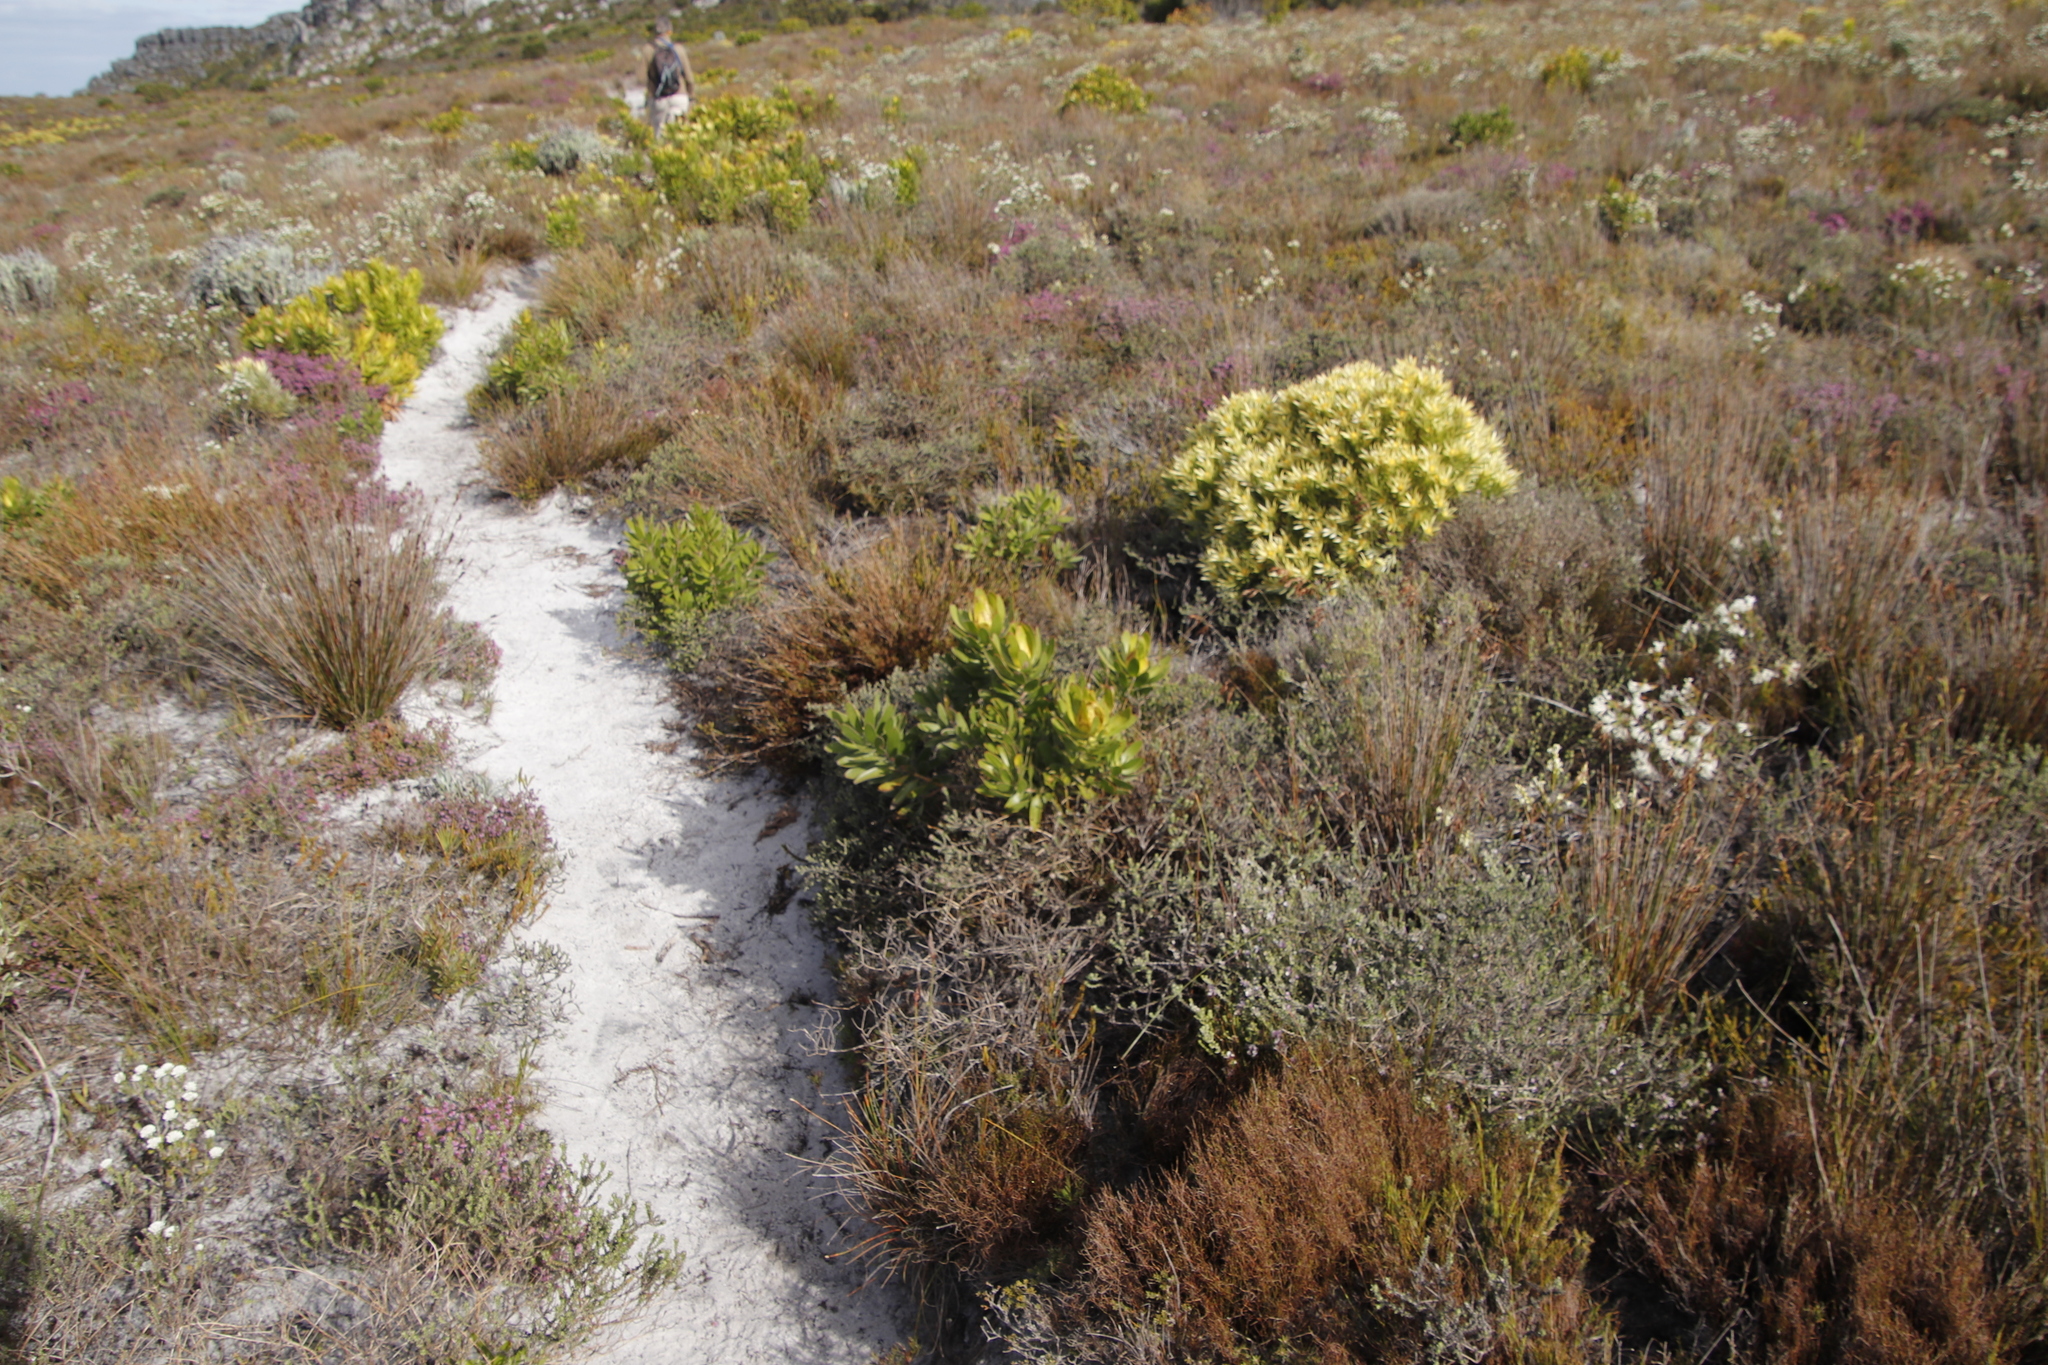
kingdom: Plantae
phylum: Tracheophyta
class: Magnoliopsida
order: Proteales
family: Proteaceae
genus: Leucadendron
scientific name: Leucadendron laureolum
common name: Golden sunshinebush
